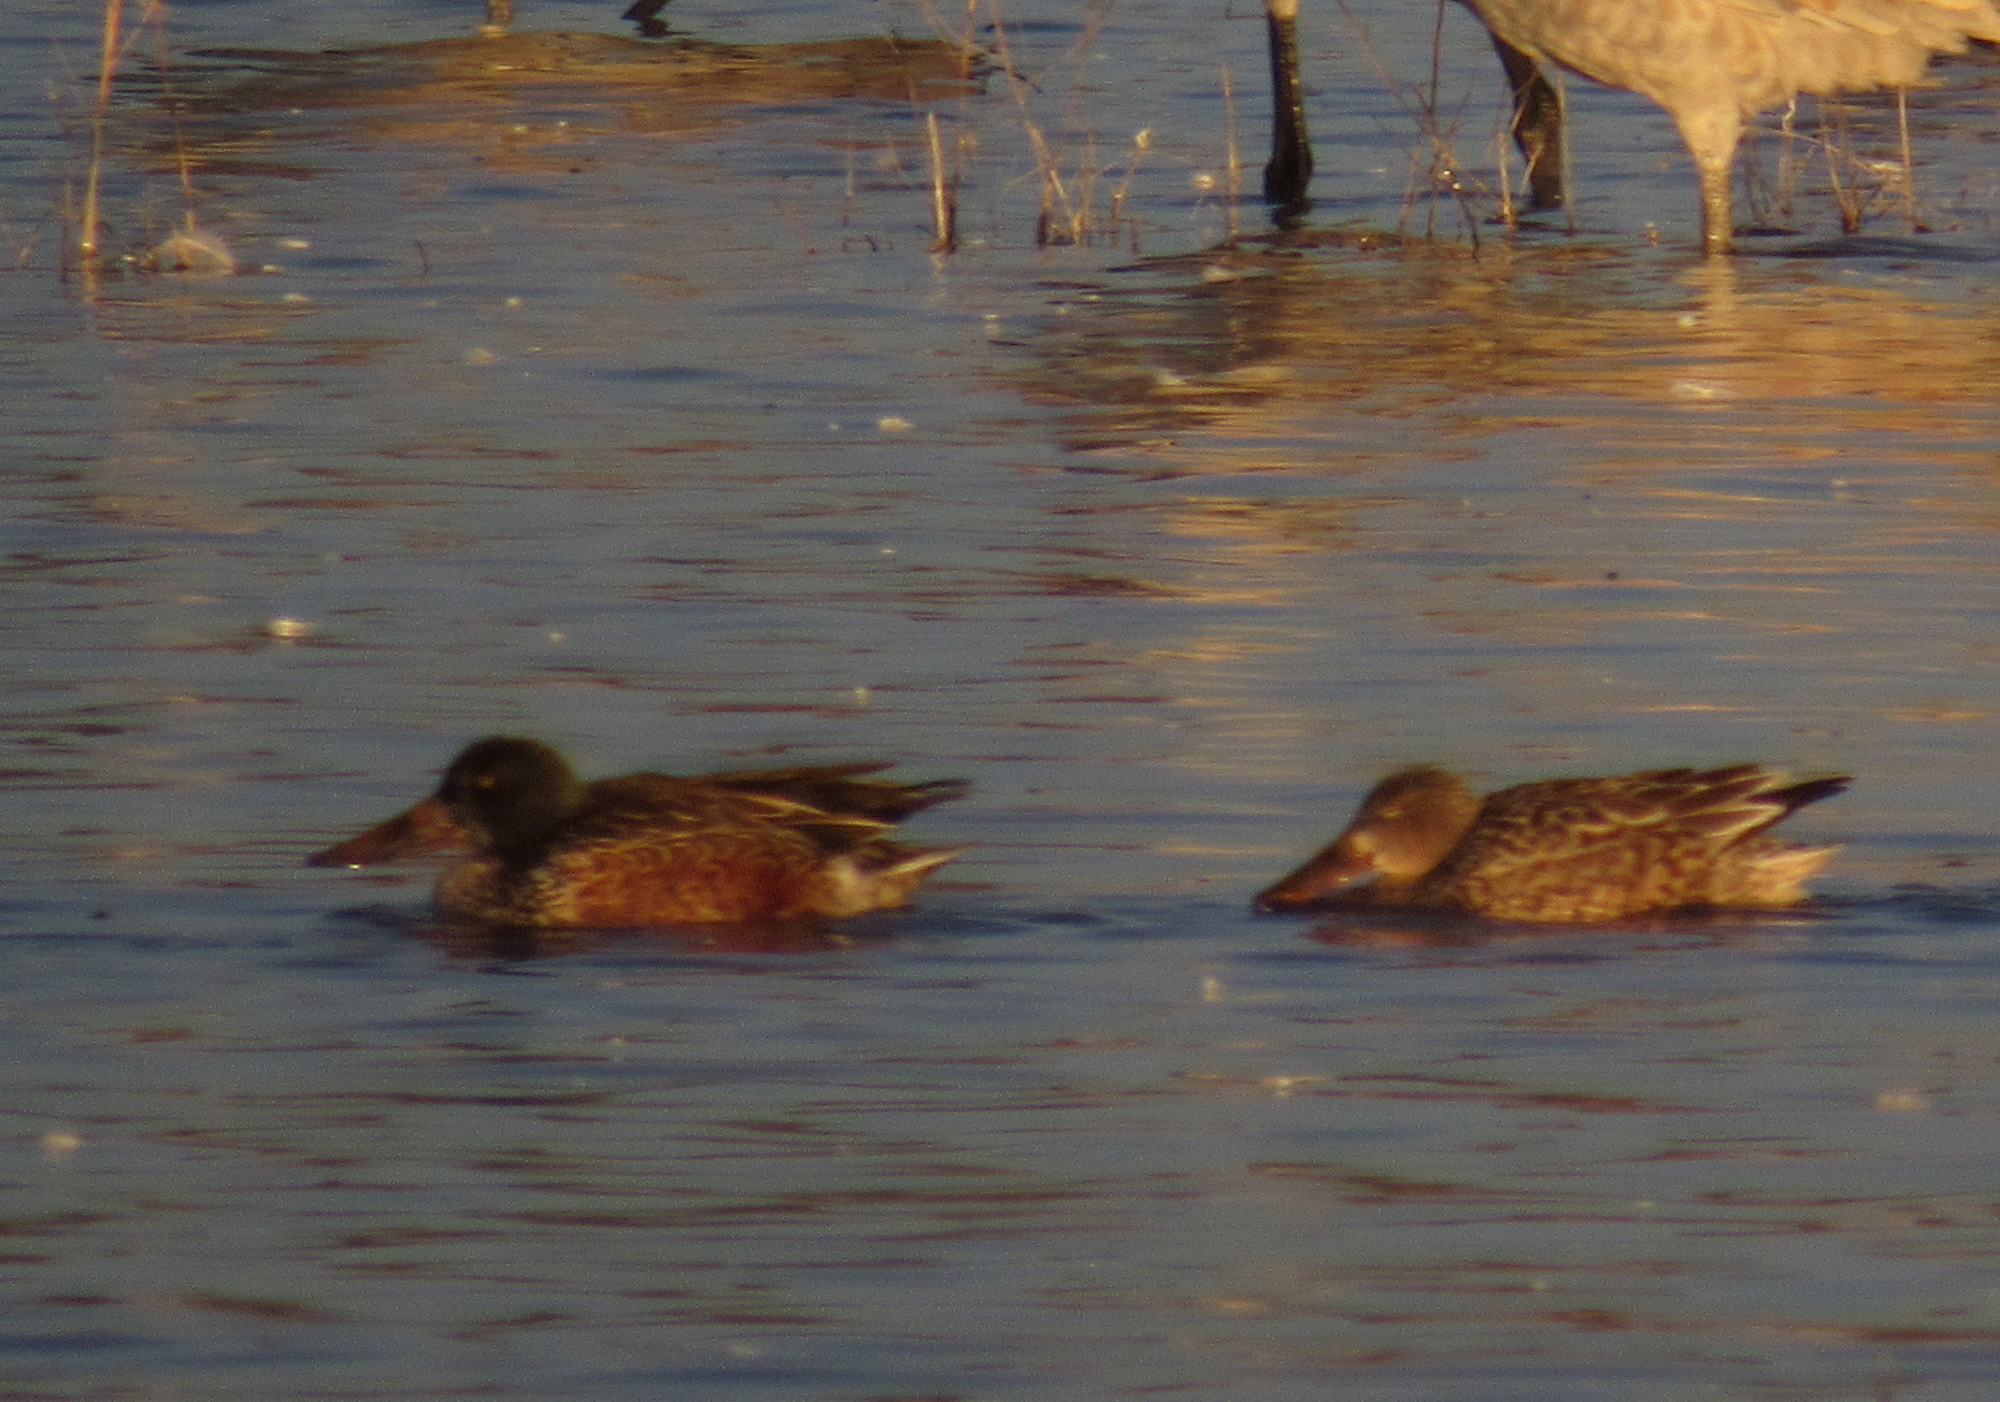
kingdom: Animalia
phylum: Chordata
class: Aves
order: Anseriformes
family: Anatidae
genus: Spatula
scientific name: Spatula clypeata
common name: Northern shoveler
